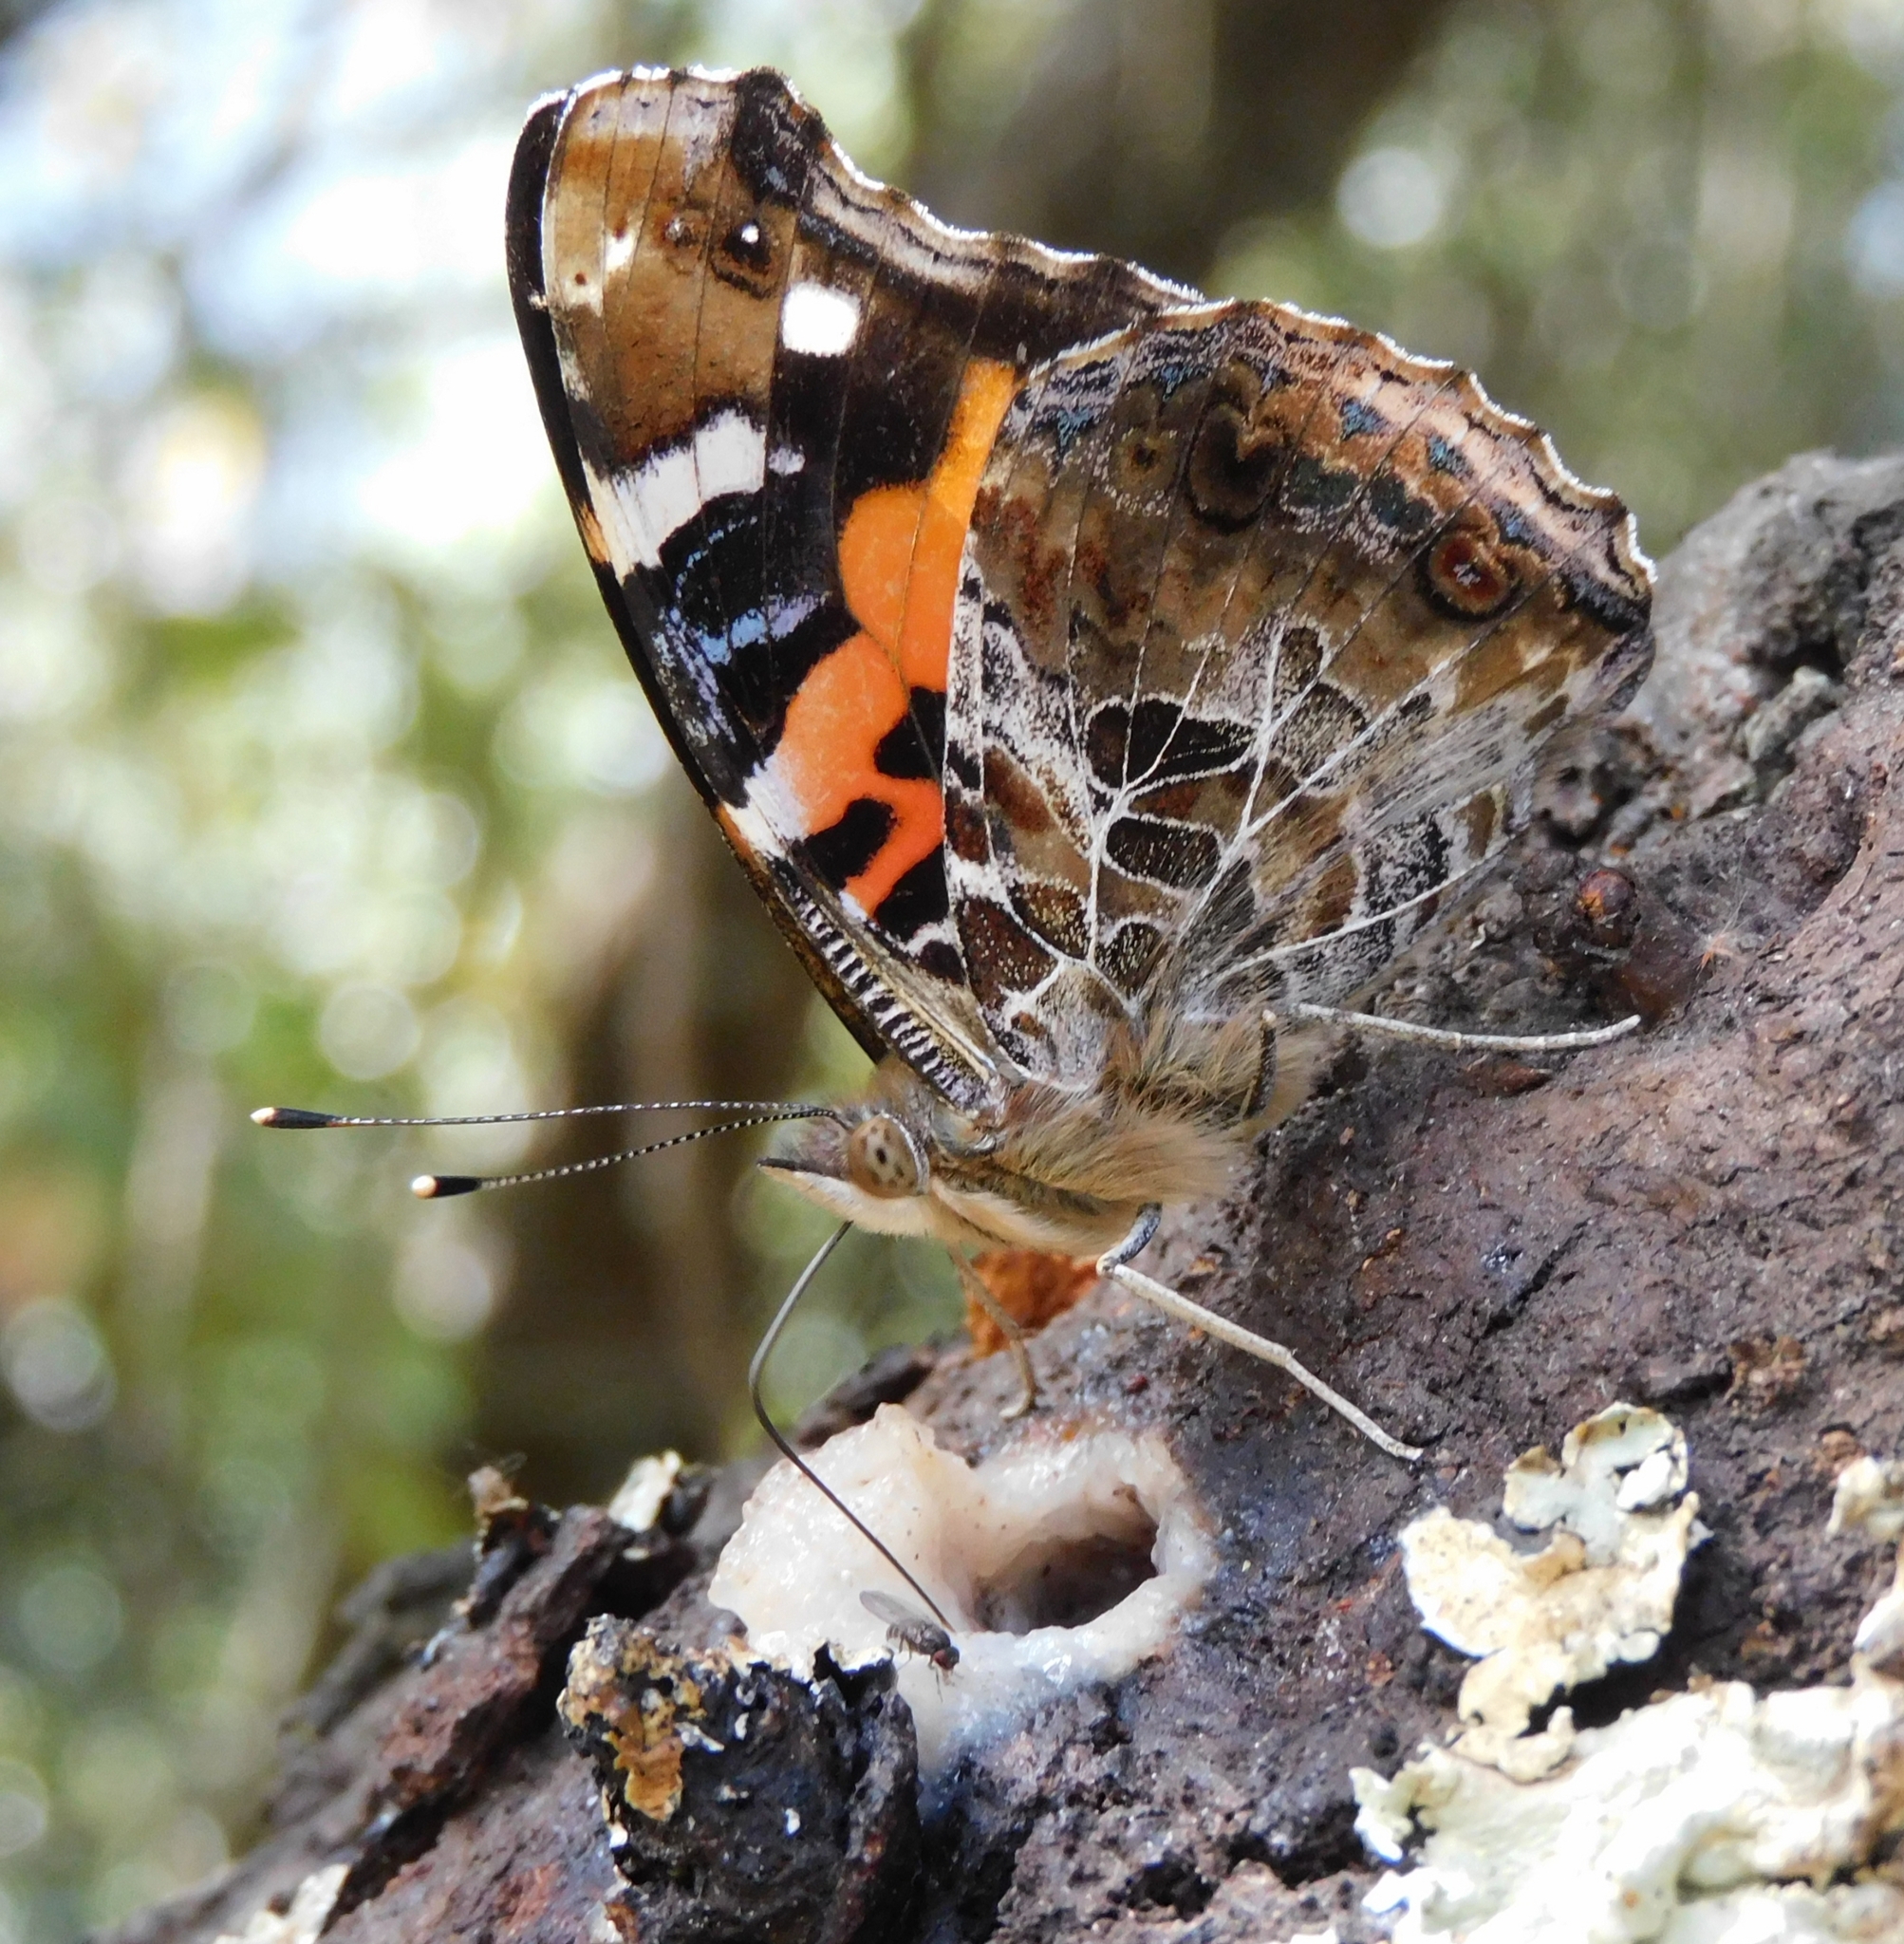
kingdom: Animalia
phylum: Arthropoda
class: Insecta
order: Lepidoptera
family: Nymphalidae
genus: Vanessa
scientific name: Vanessa indica
